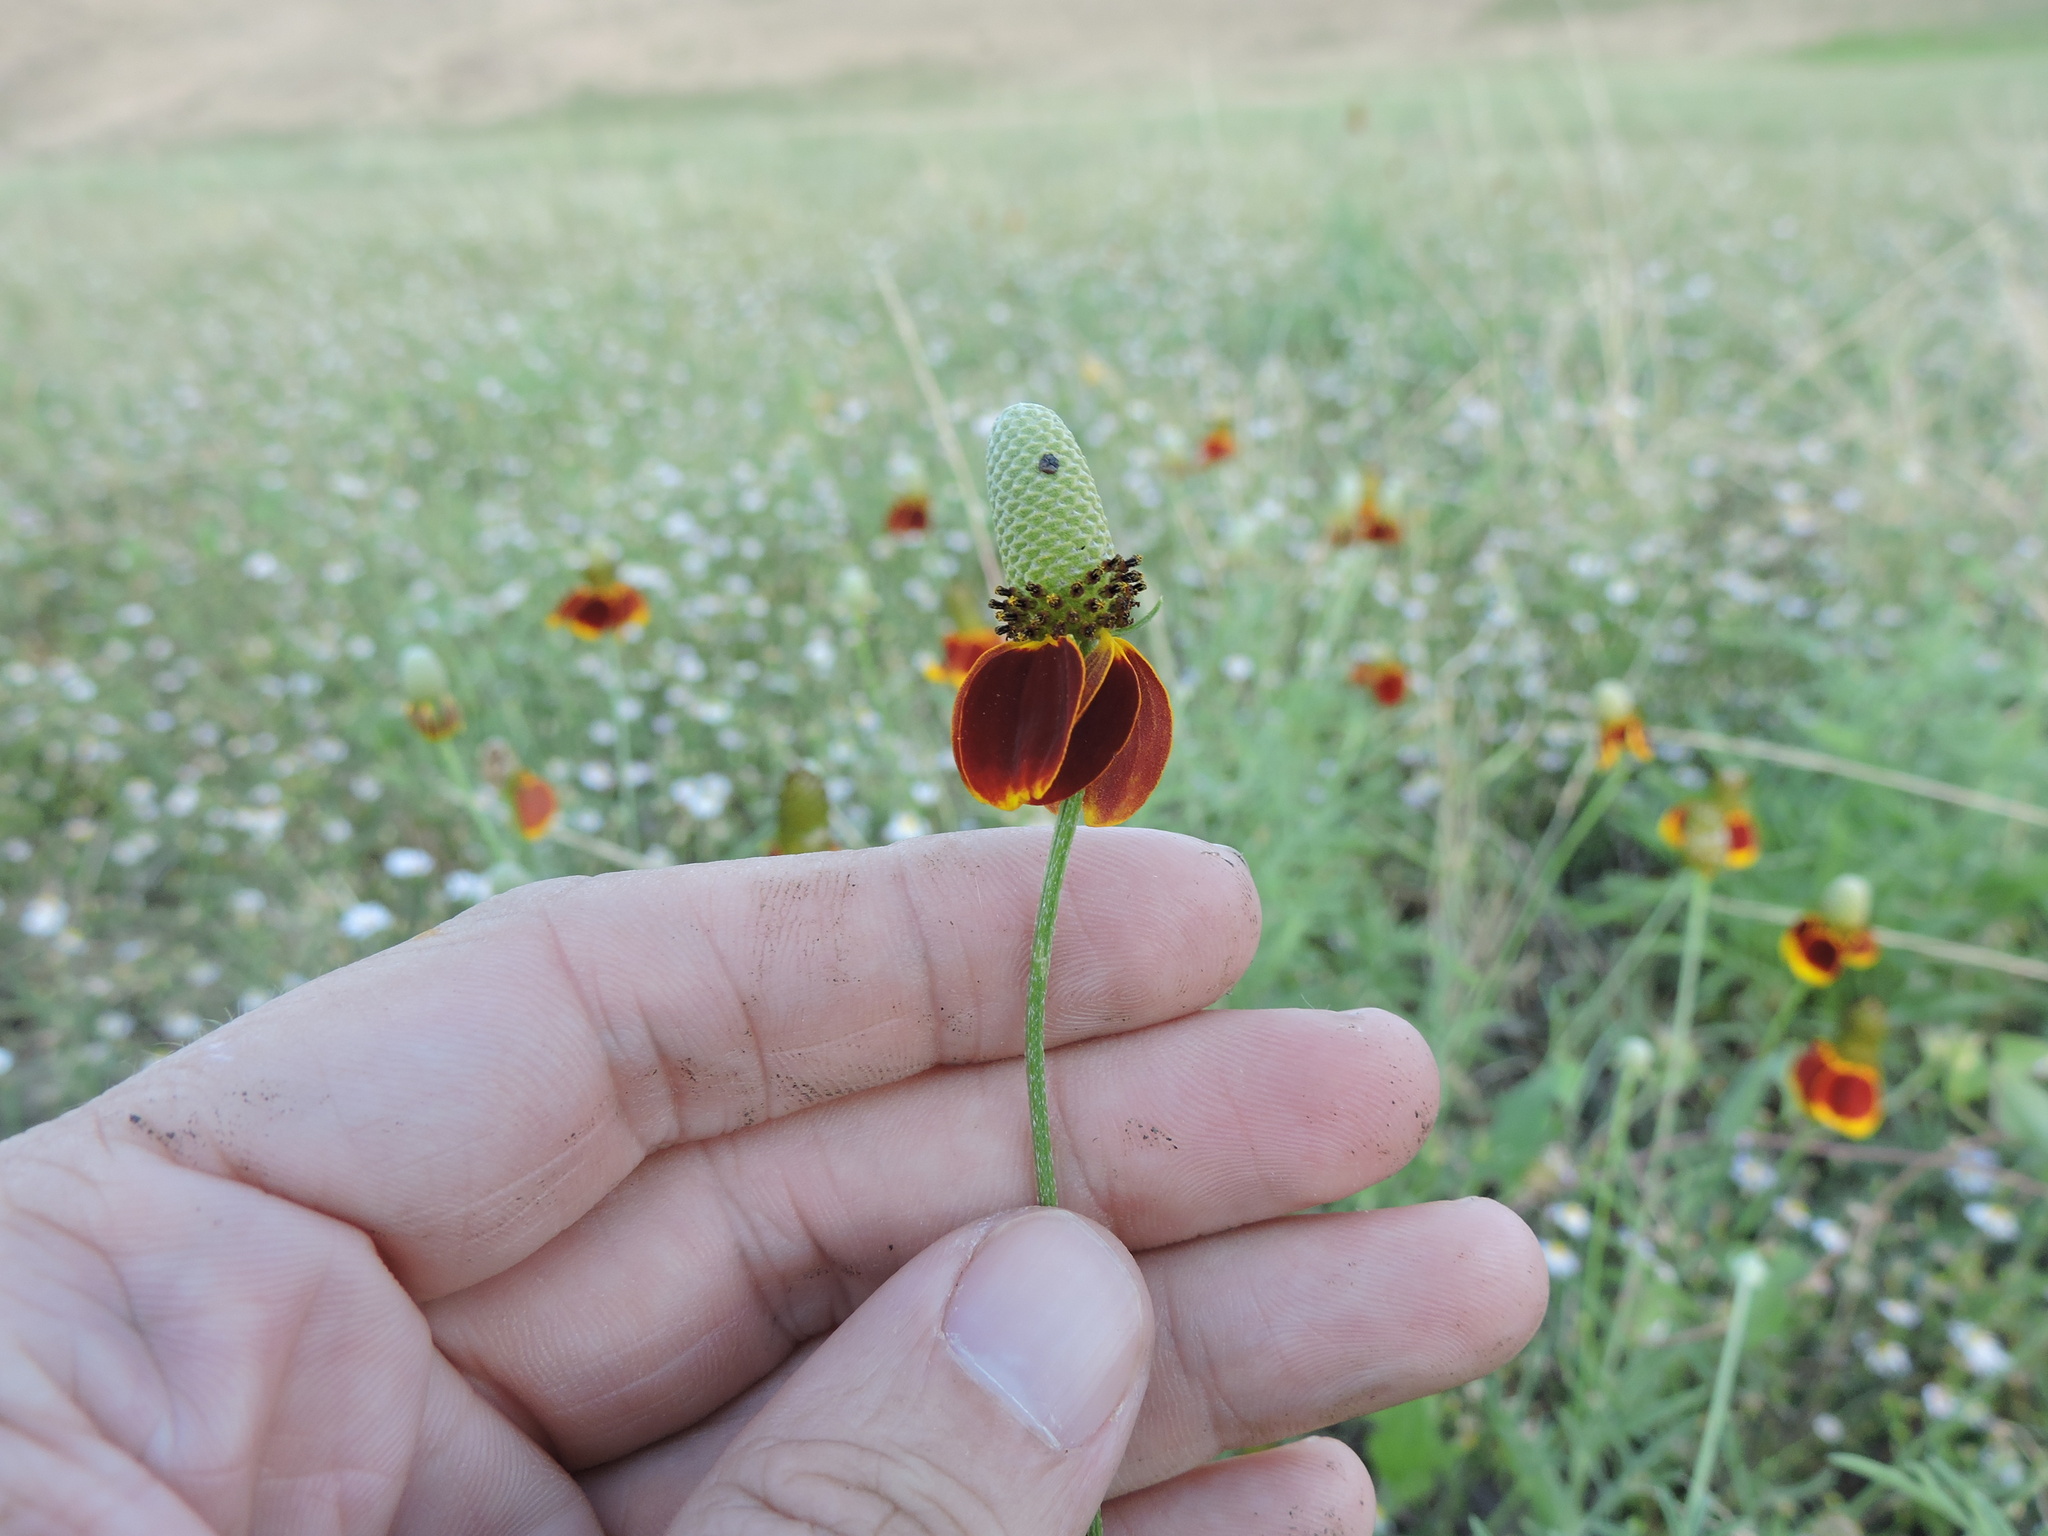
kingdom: Plantae
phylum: Tracheophyta
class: Magnoliopsida
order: Asterales
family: Asteraceae
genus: Ratibida
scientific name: Ratibida columnifera
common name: Prairie coneflower
